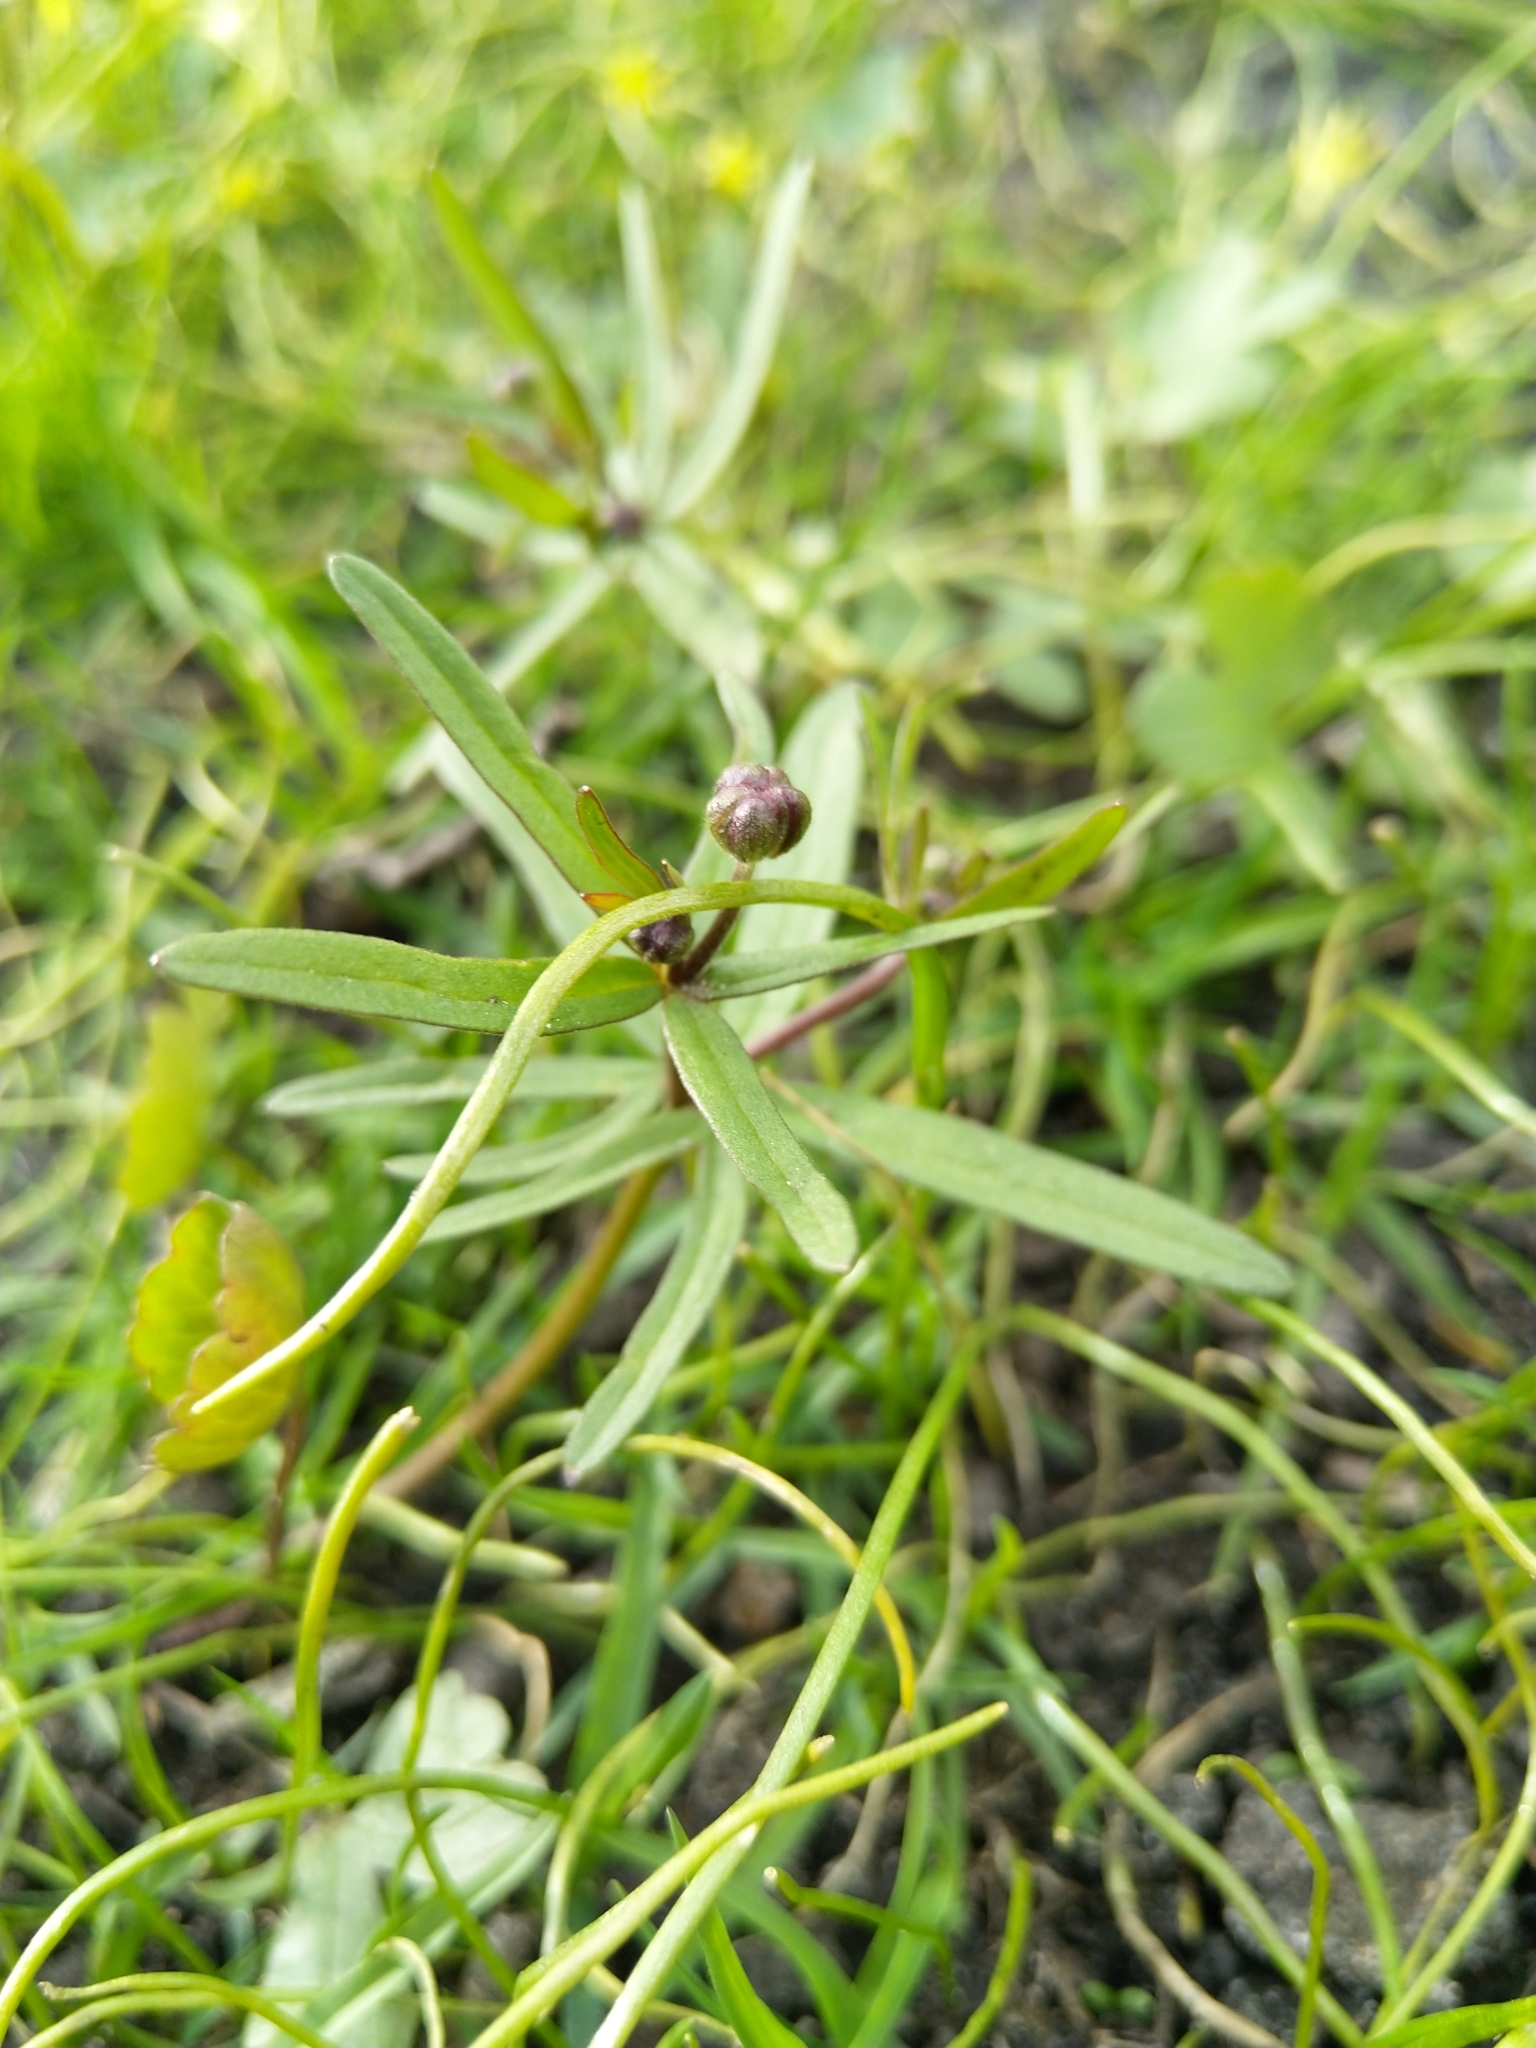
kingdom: Plantae
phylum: Tracheophyta
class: Magnoliopsida
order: Ranunculales
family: Ranunculaceae
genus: Ranunculus
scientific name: Ranunculus auricomus
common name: Goldilocks buttercup
